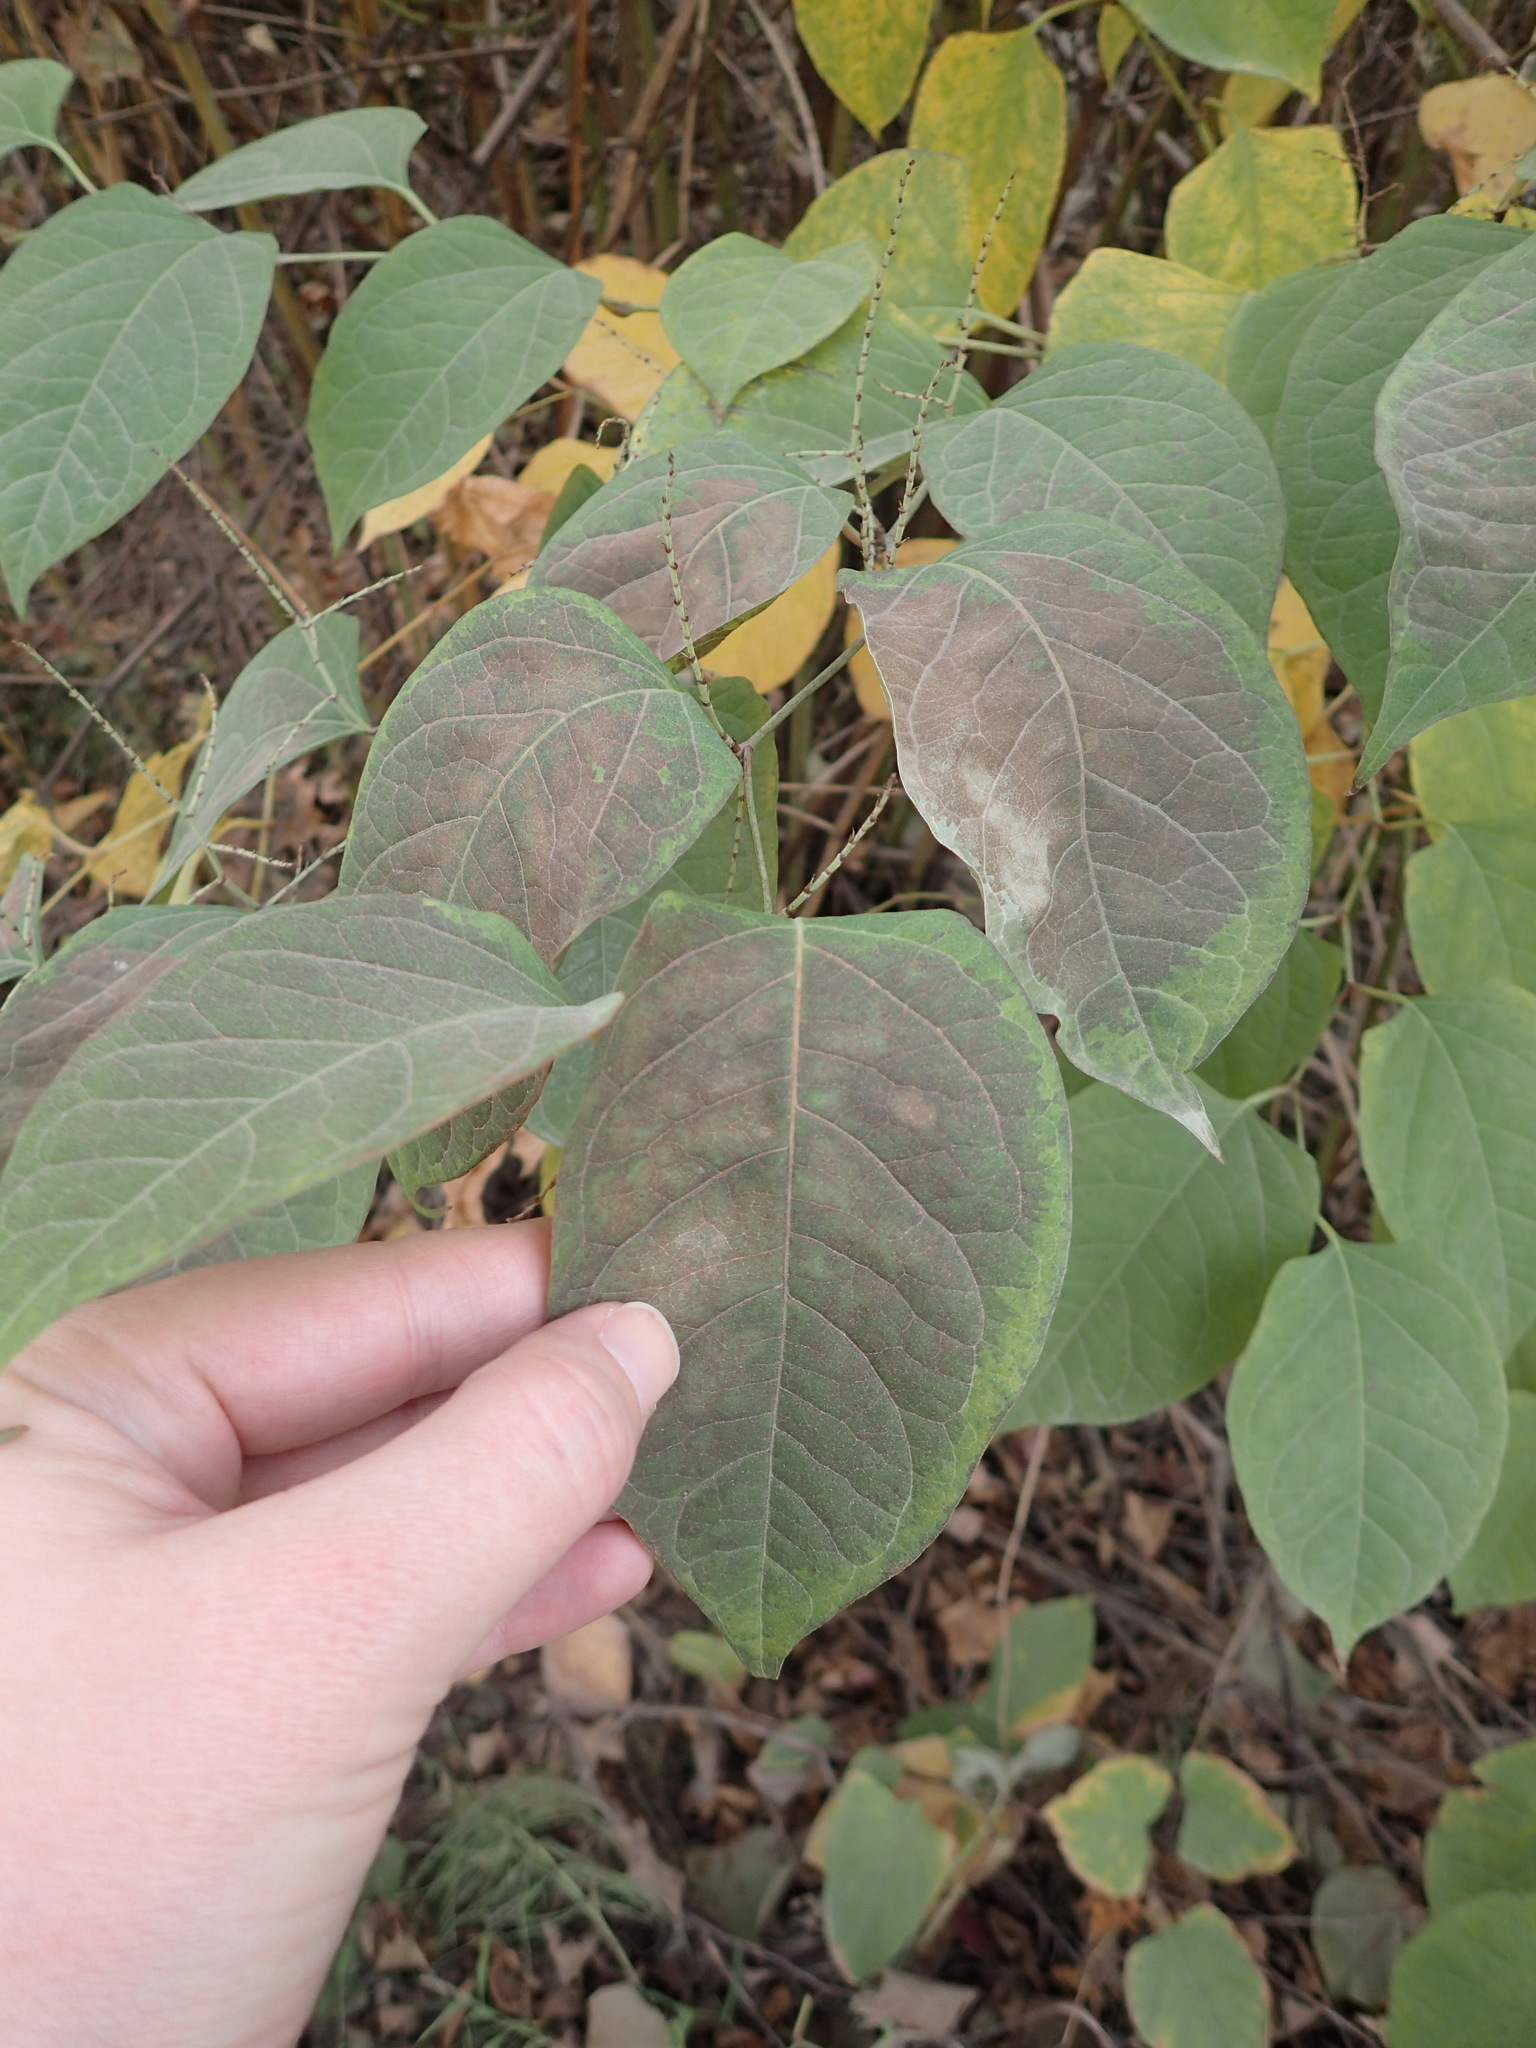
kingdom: Plantae
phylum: Tracheophyta
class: Magnoliopsida
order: Caryophyllales
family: Polygonaceae
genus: Reynoutria
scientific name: Reynoutria japonica
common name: Japanese knotweed
